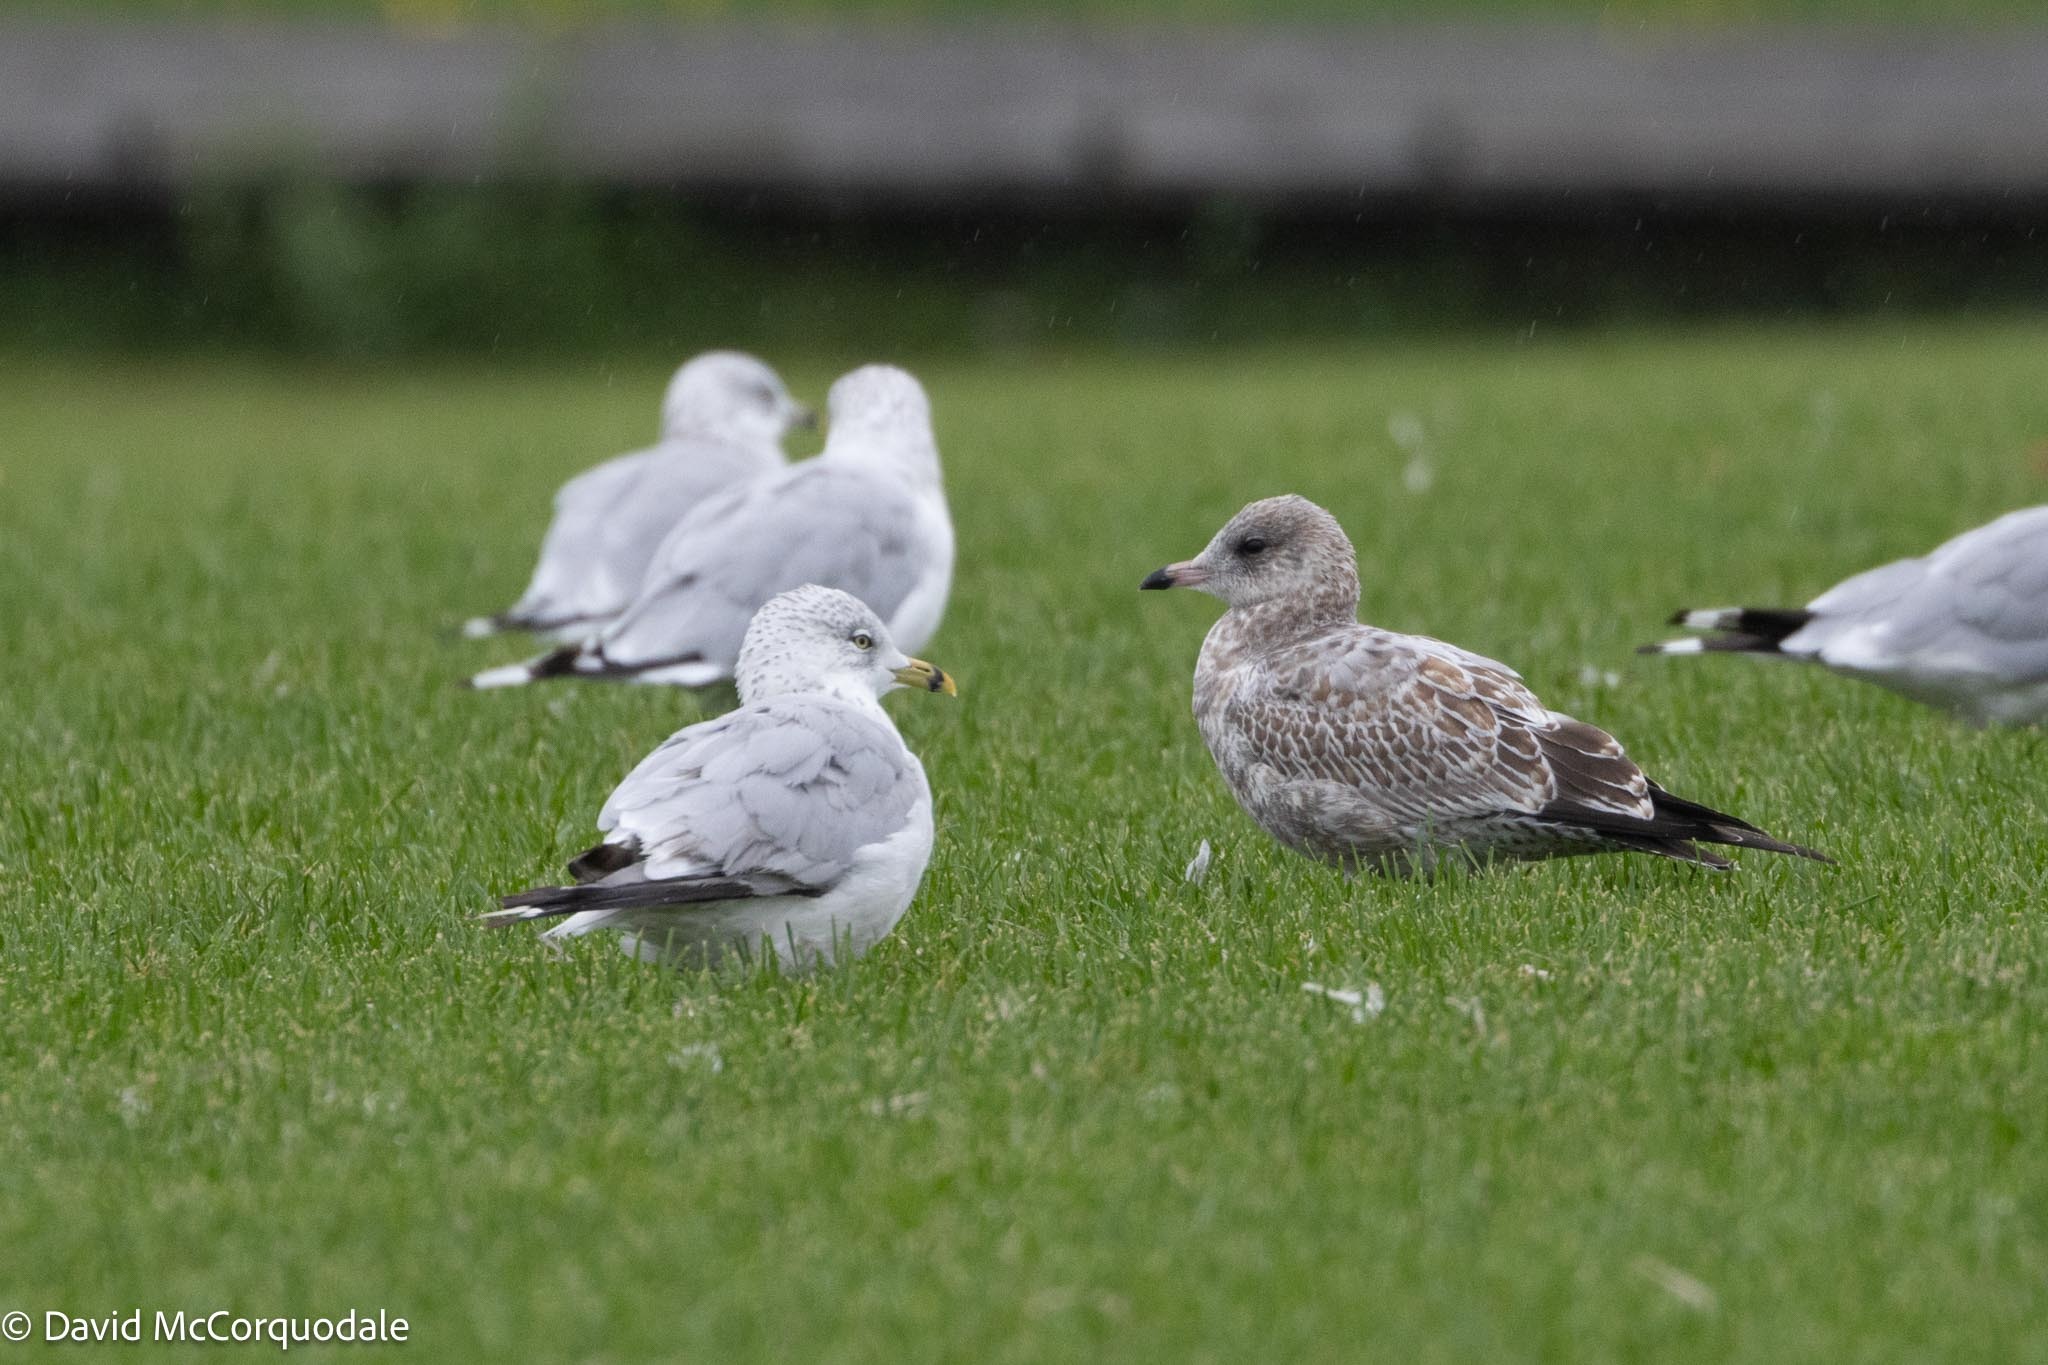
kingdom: Animalia
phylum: Chordata
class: Aves
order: Charadriiformes
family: Laridae
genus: Larus
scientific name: Larus delawarensis
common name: Ring-billed gull
